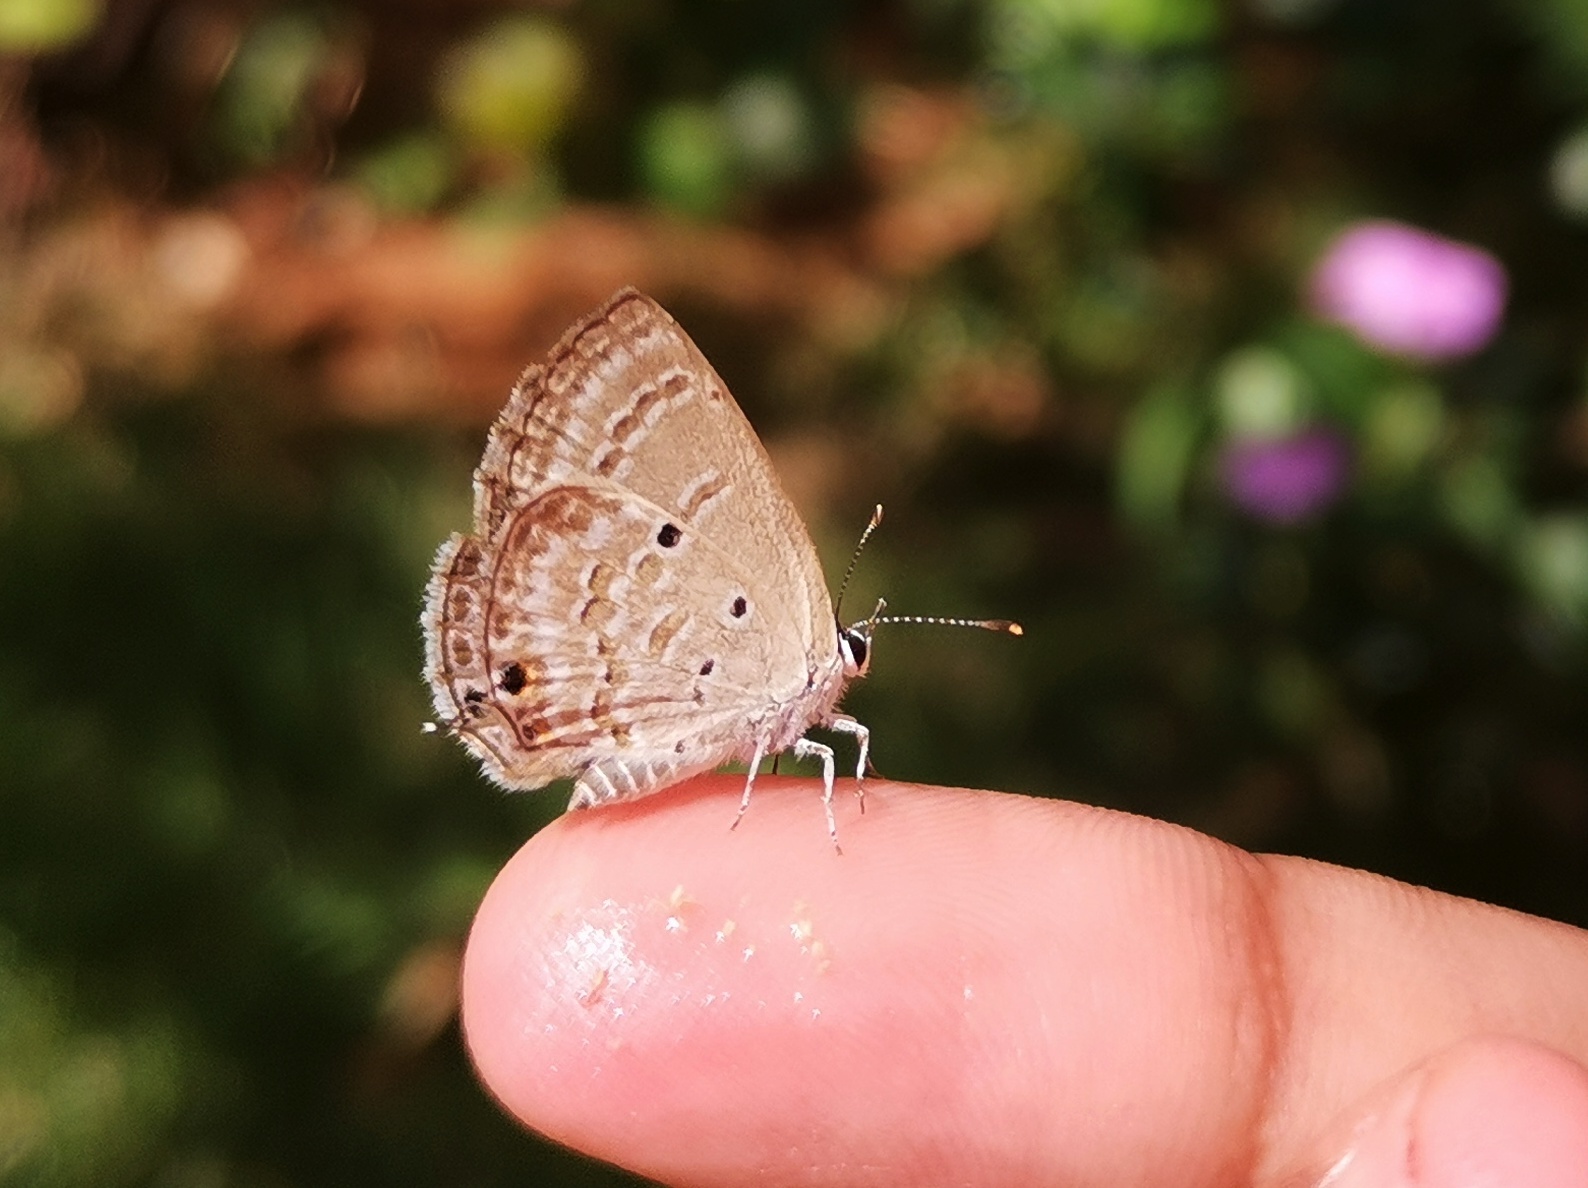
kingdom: Animalia
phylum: Arthropoda
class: Insecta
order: Lepidoptera
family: Lycaenidae
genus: Luthrodes
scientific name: Luthrodes pandava
